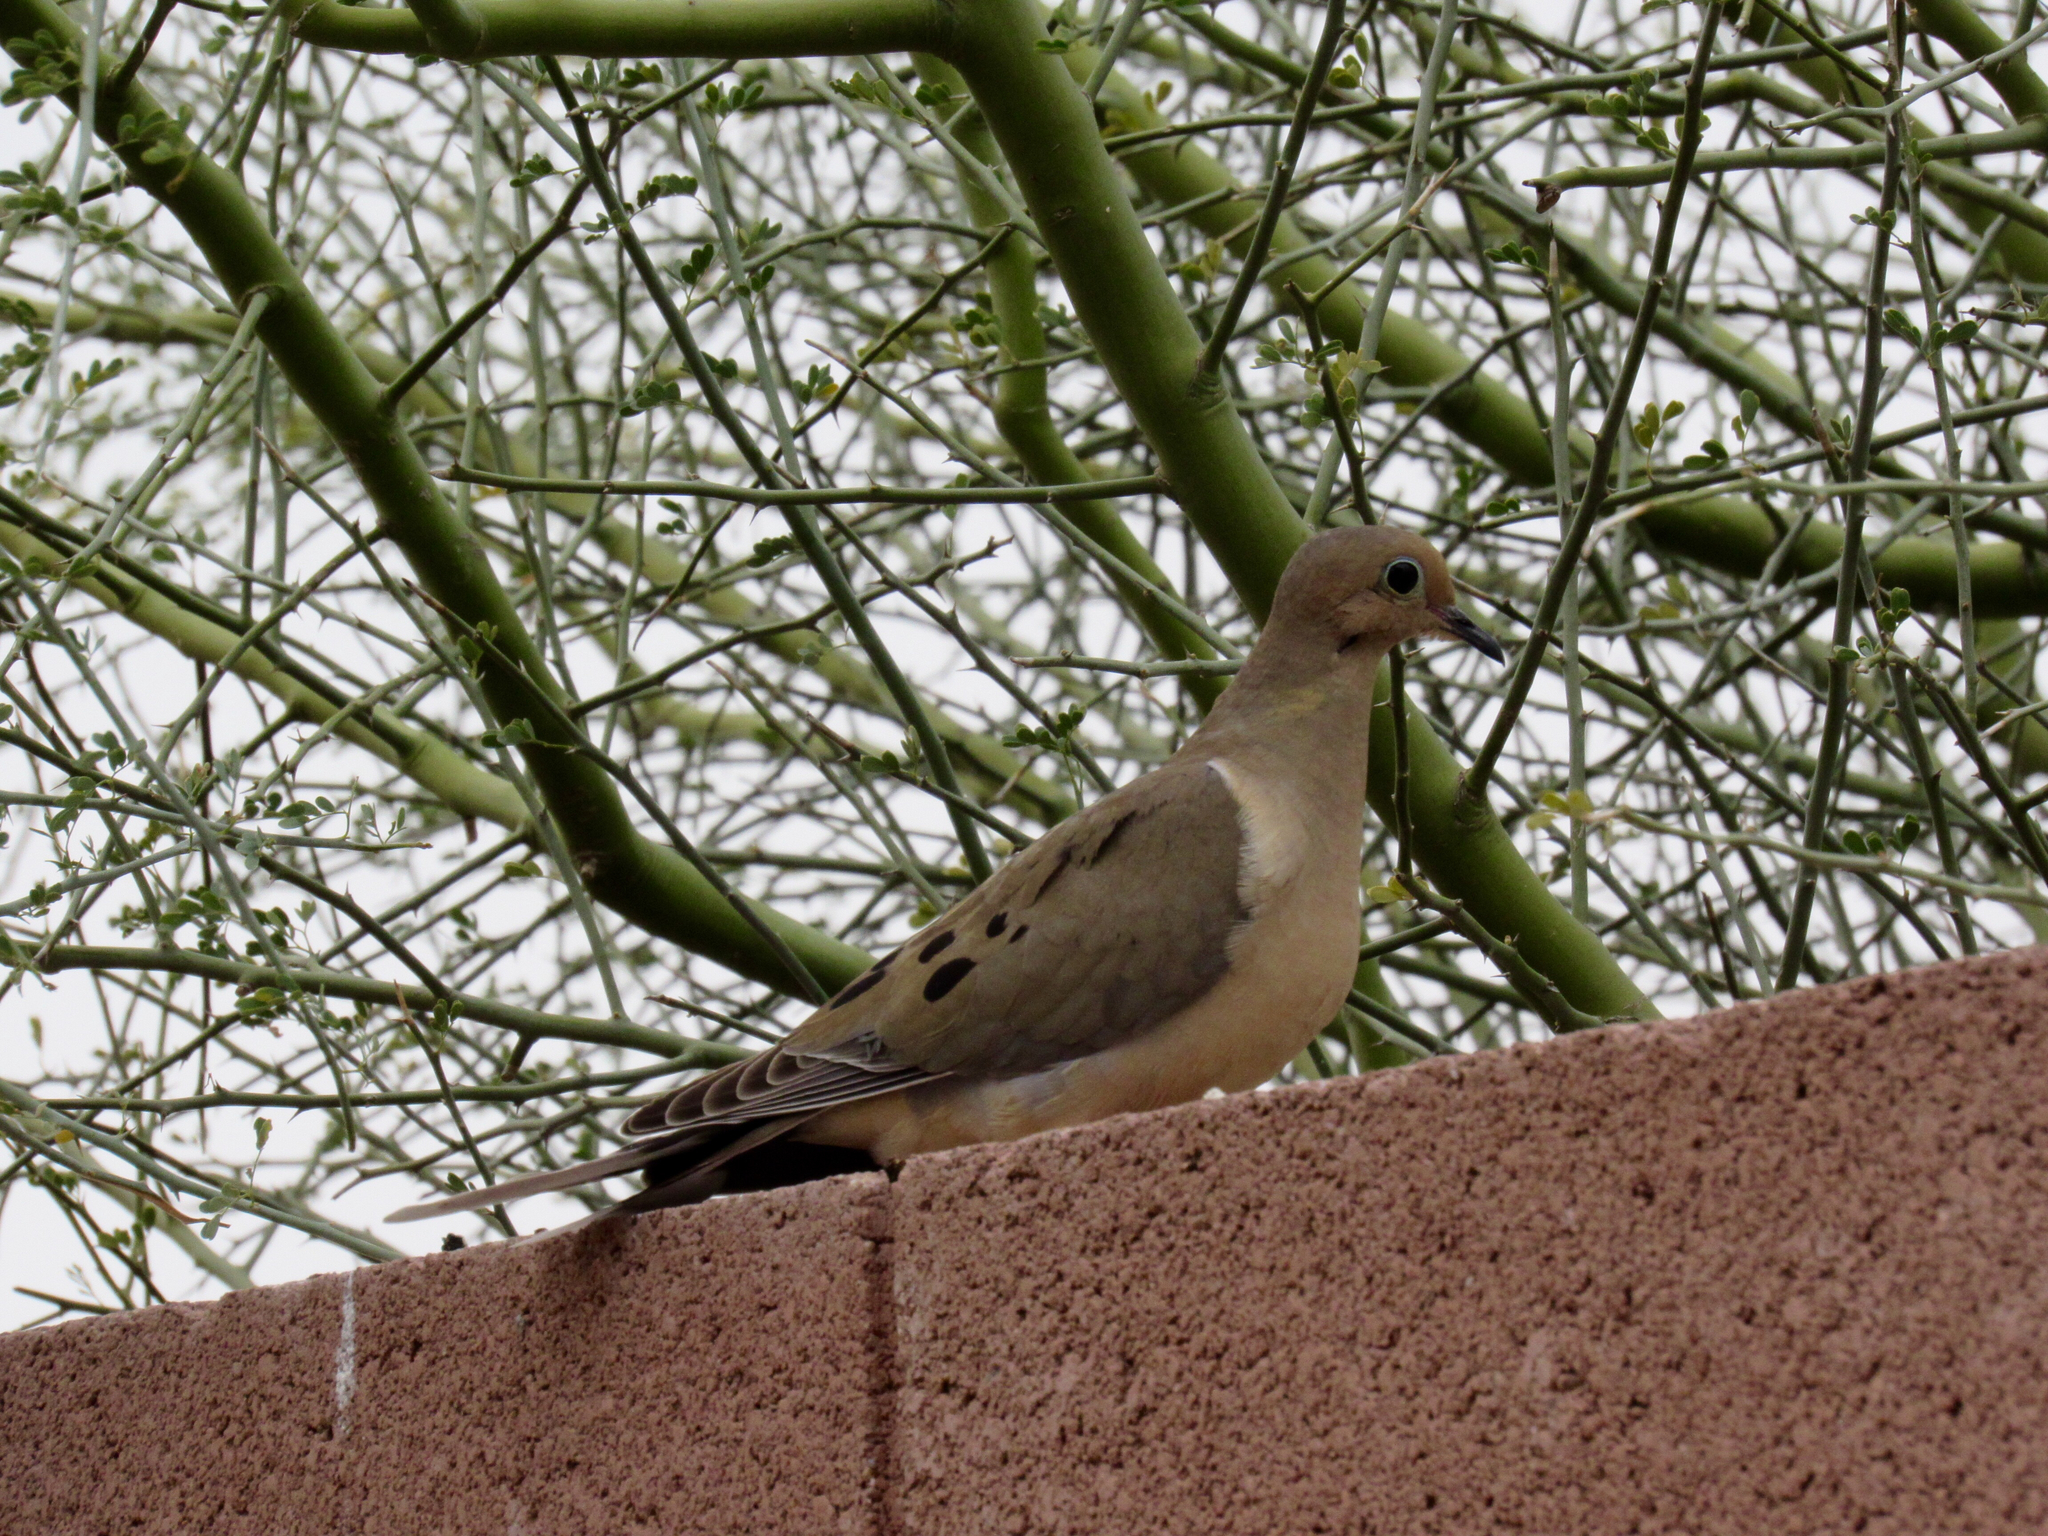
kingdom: Animalia
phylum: Chordata
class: Aves
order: Columbiformes
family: Columbidae
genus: Zenaida
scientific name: Zenaida macroura
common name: Mourning dove
